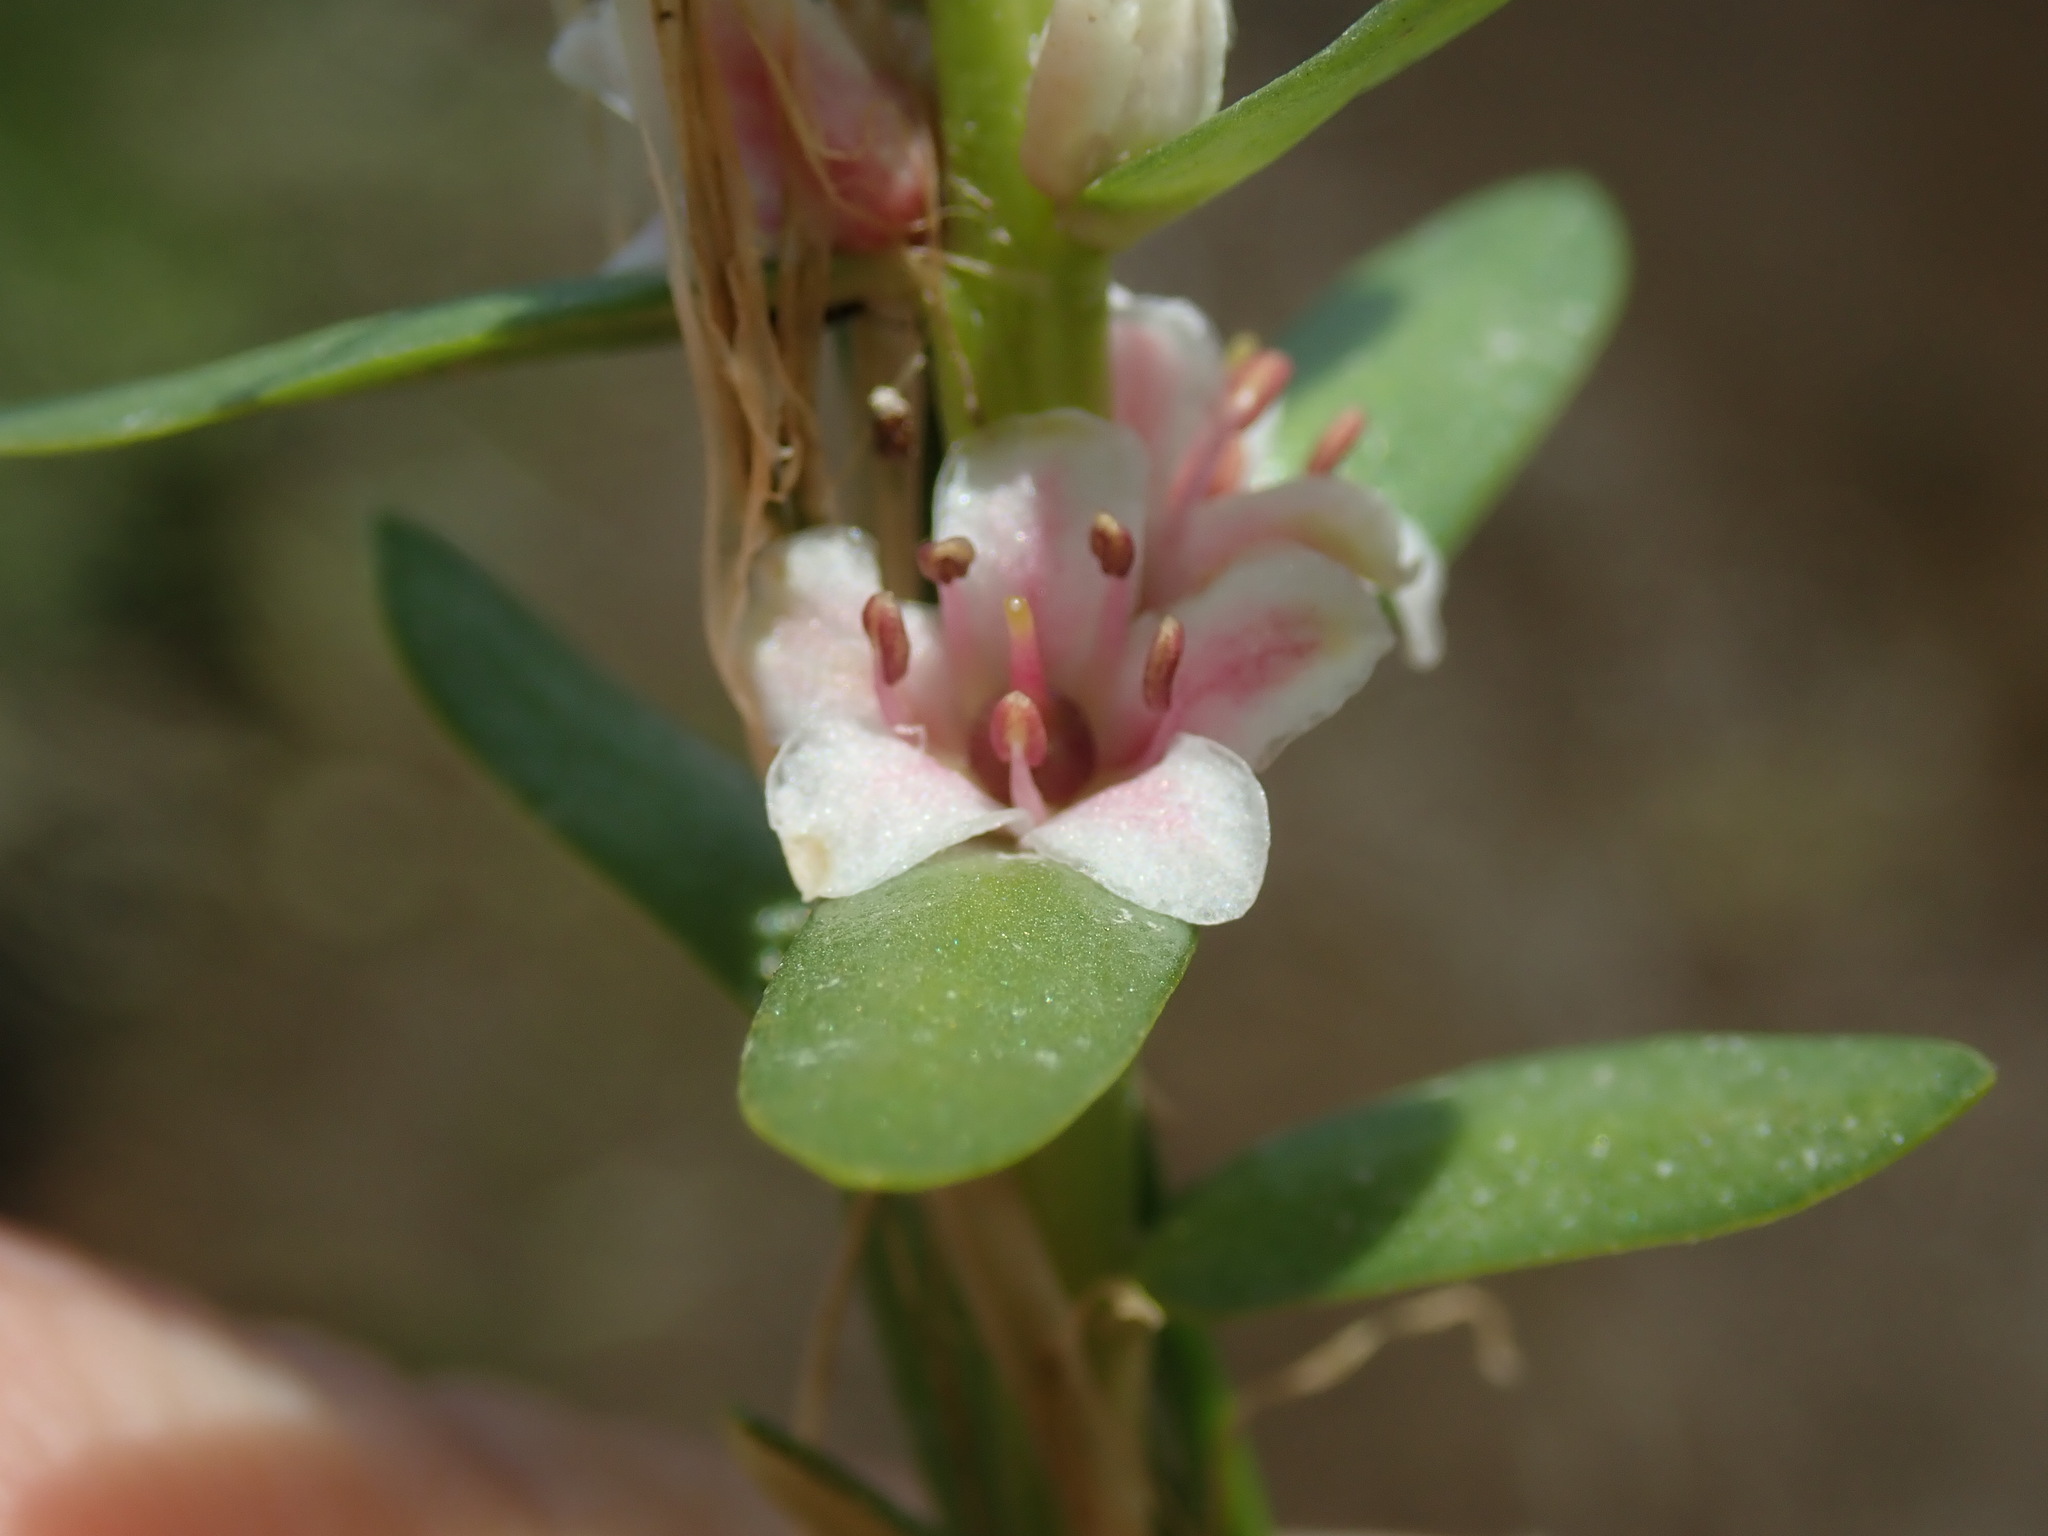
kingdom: Plantae
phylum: Tracheophyta
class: Magnoliopsida
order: Ericales
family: Primulaceae
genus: Lysimachia
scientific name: Lysimachia maritima
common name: Sea milkwort
